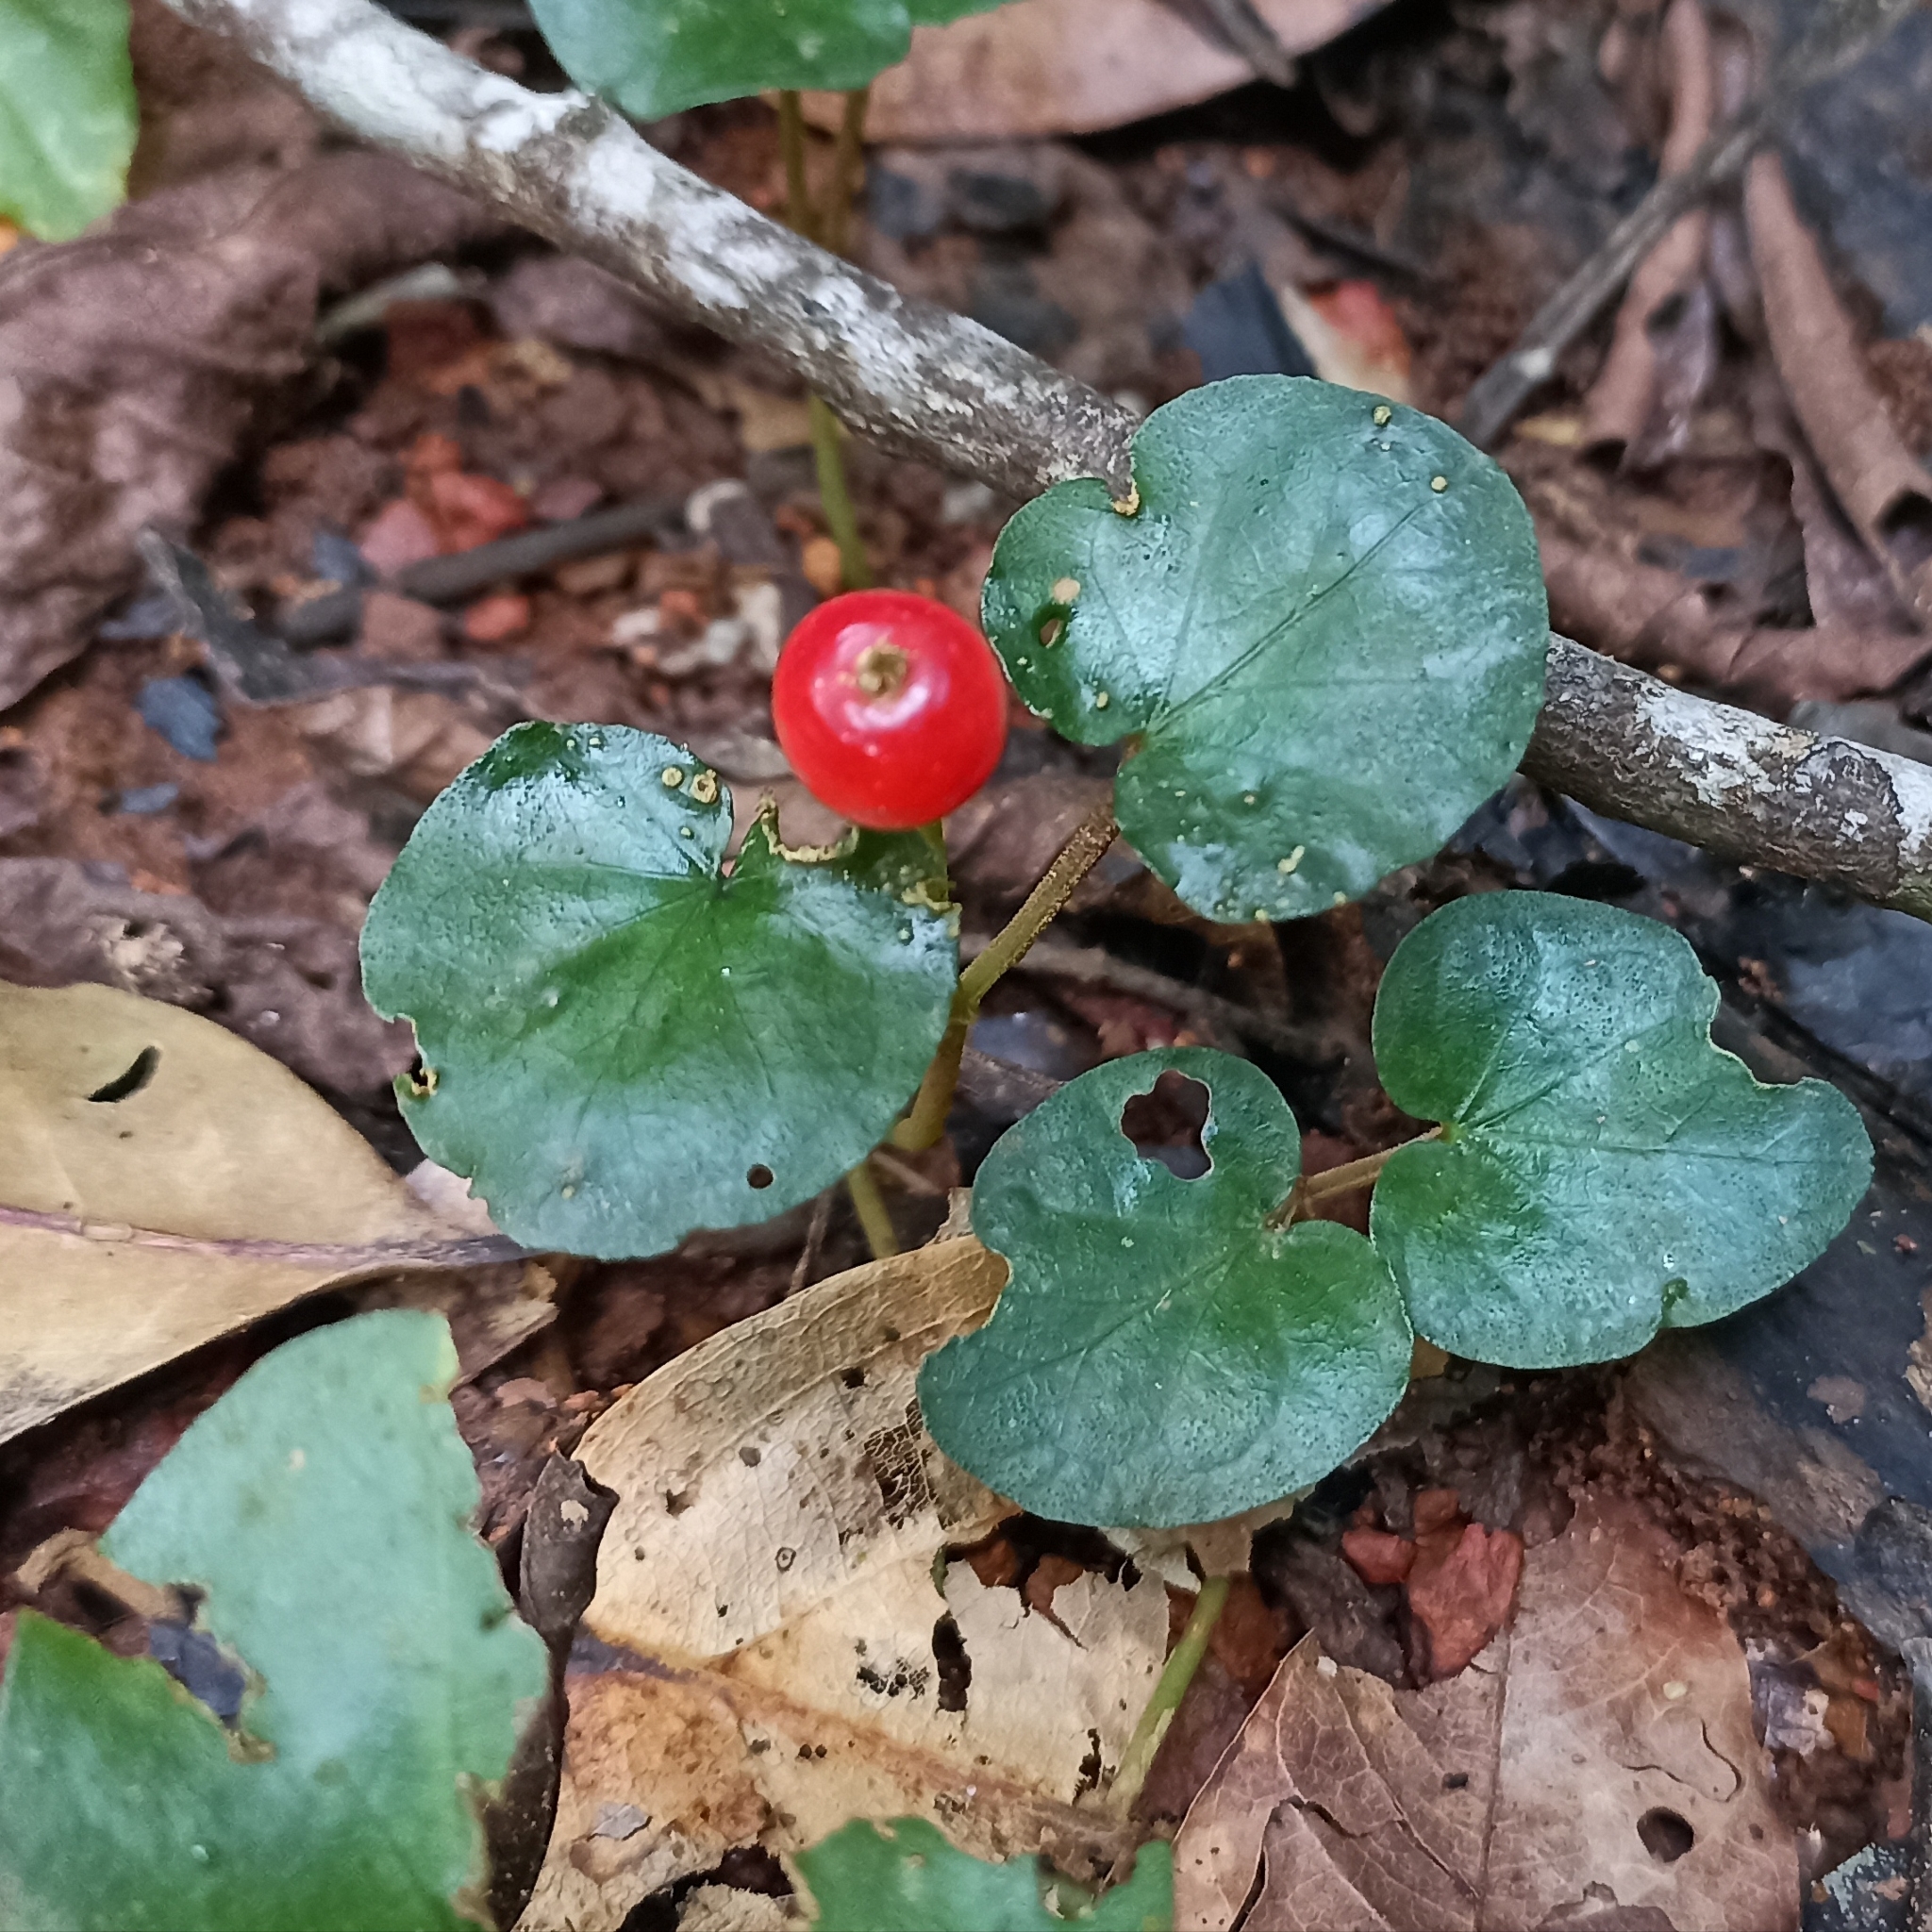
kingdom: Plantae
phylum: Tracheophyta
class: Magnoliopsida
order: Gentianales
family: Rubiaceae
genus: Geophila
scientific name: Geophila herbacea
